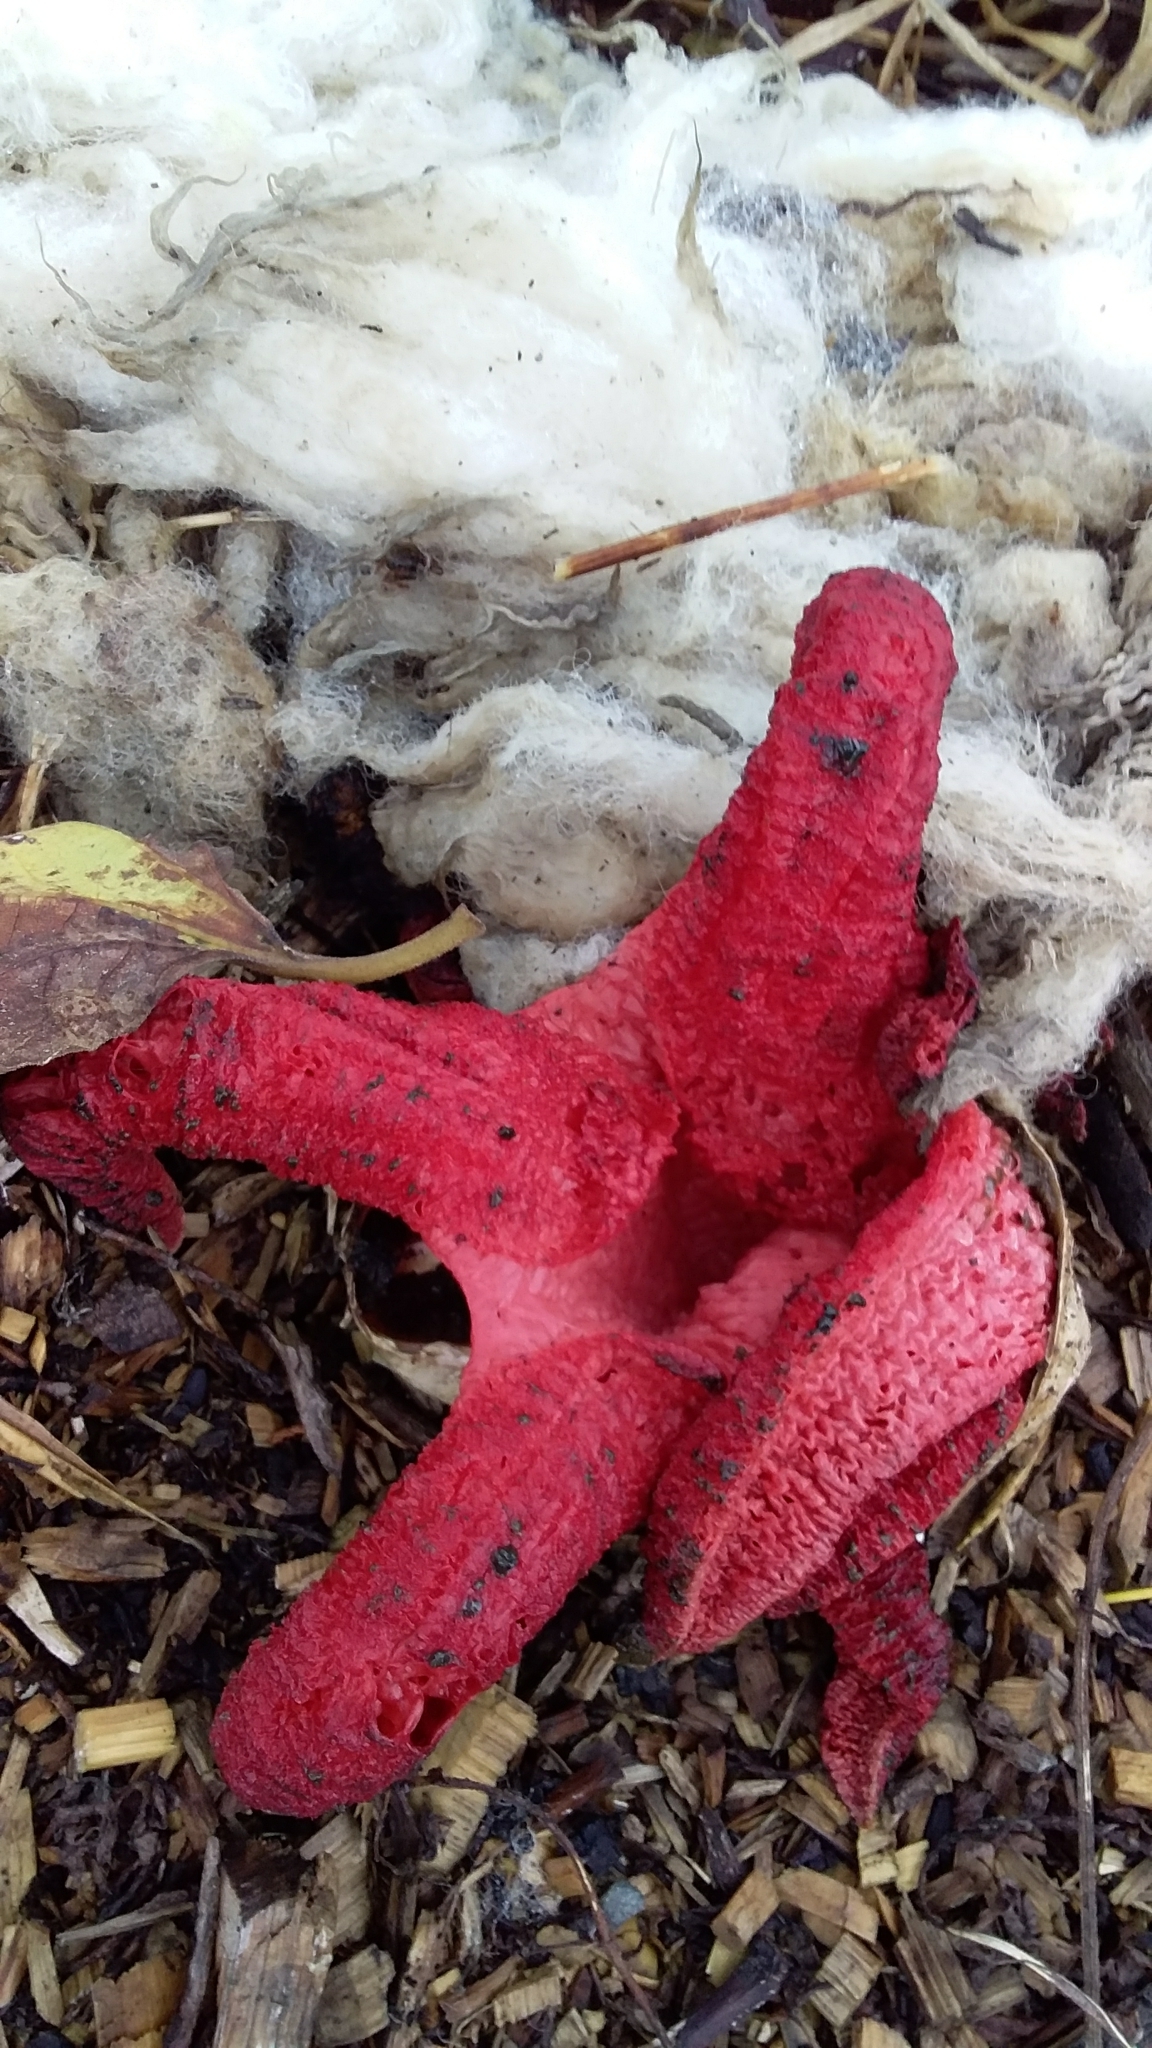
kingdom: Fungi
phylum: Basidiomycota
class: Agaricomycetes
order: Phallales
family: Phallaceae
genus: Clathrus
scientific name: Clathrus archeri
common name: Devil's fingers
